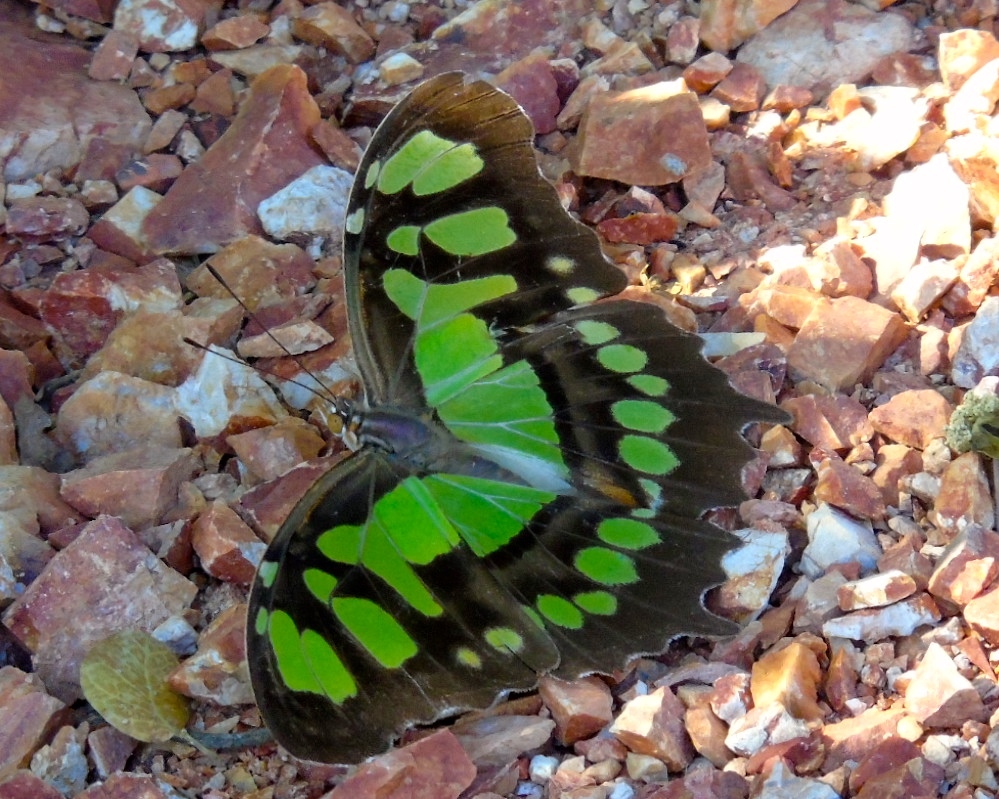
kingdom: Animalia
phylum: Arthropoda
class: Insecta
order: Lepidoptera
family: Nymphalidae
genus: Siproeta
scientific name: Siproeta stelenes
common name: Malachite
